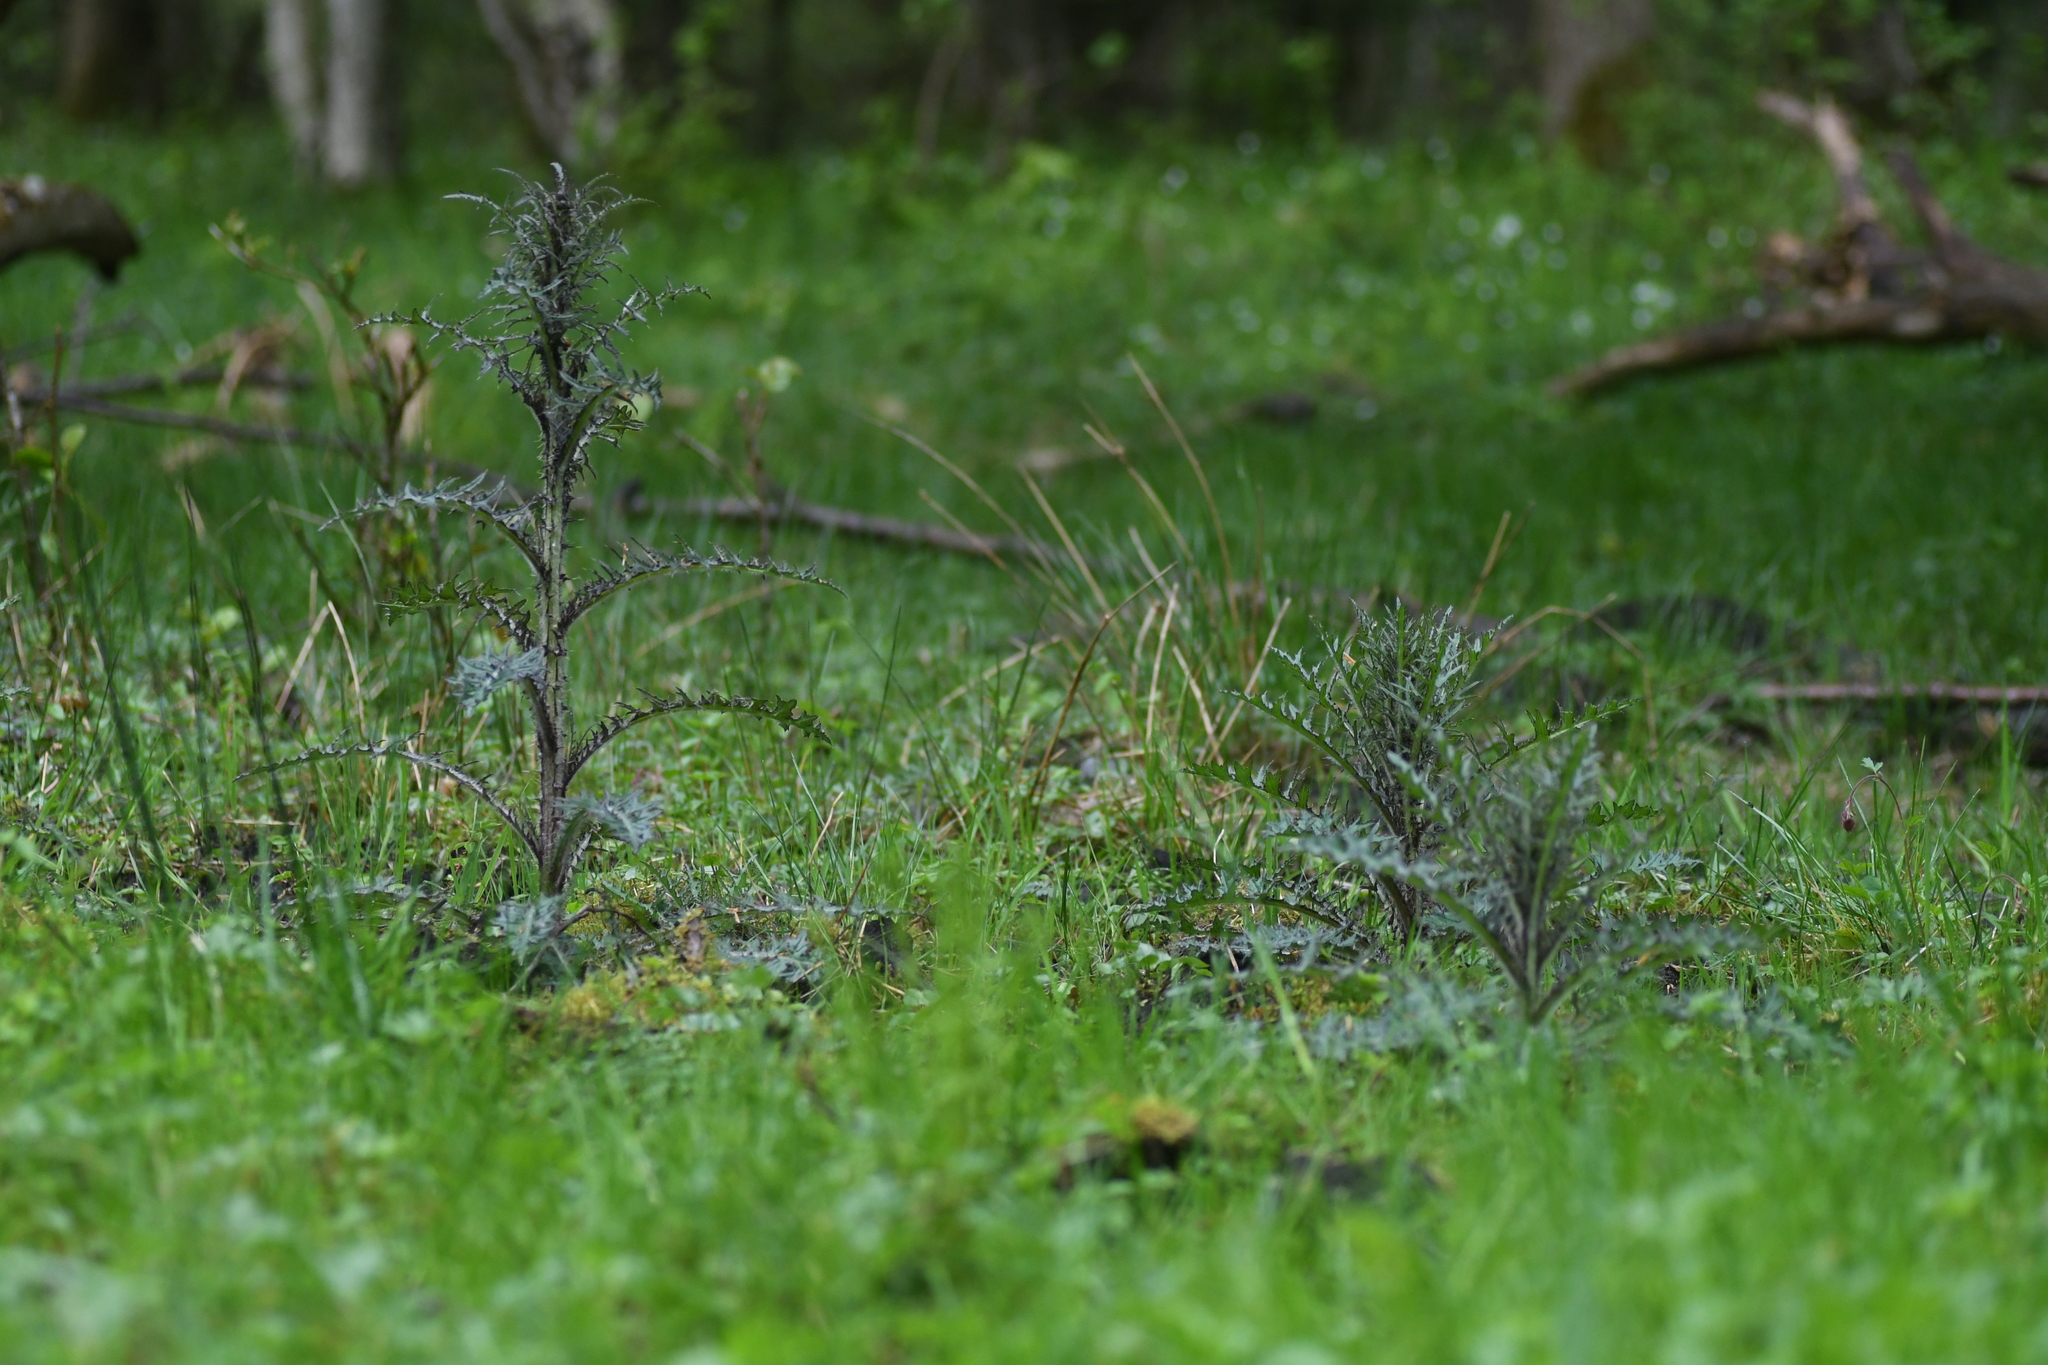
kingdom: Plantae
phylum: Tracheophyta
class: Magnoliopsida
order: Asterales
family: Asteraceae
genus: Cirsium
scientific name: Cirsium palustre
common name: Marsh thistle
